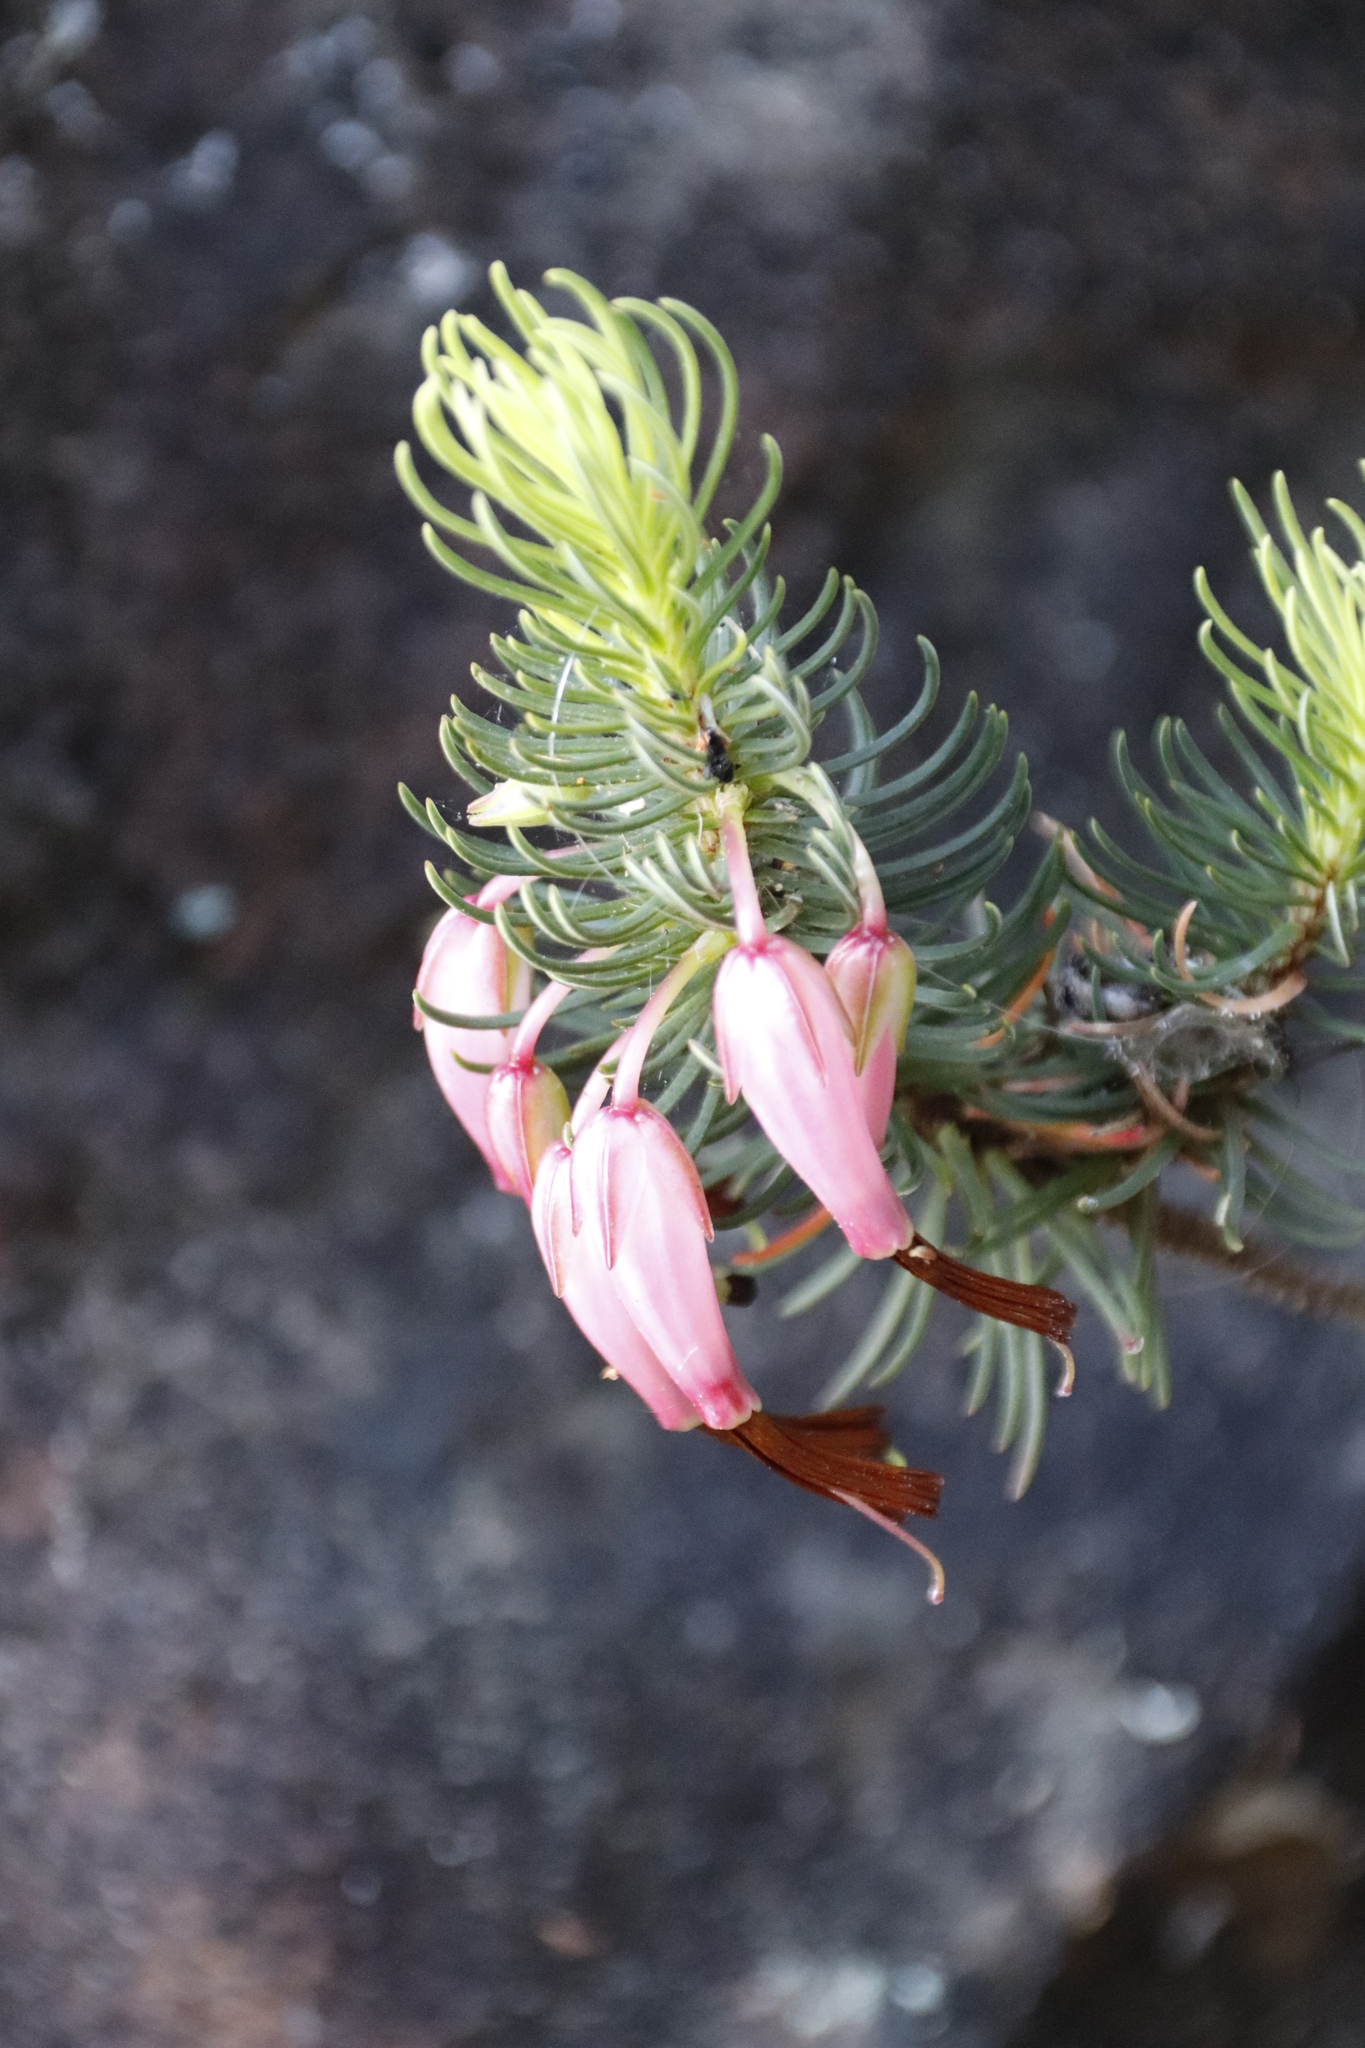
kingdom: Plantae
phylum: Tracheophyta
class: Magnoliopsida
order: Ericales
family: Ericaceae
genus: Erica
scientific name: Erica plukenetii
